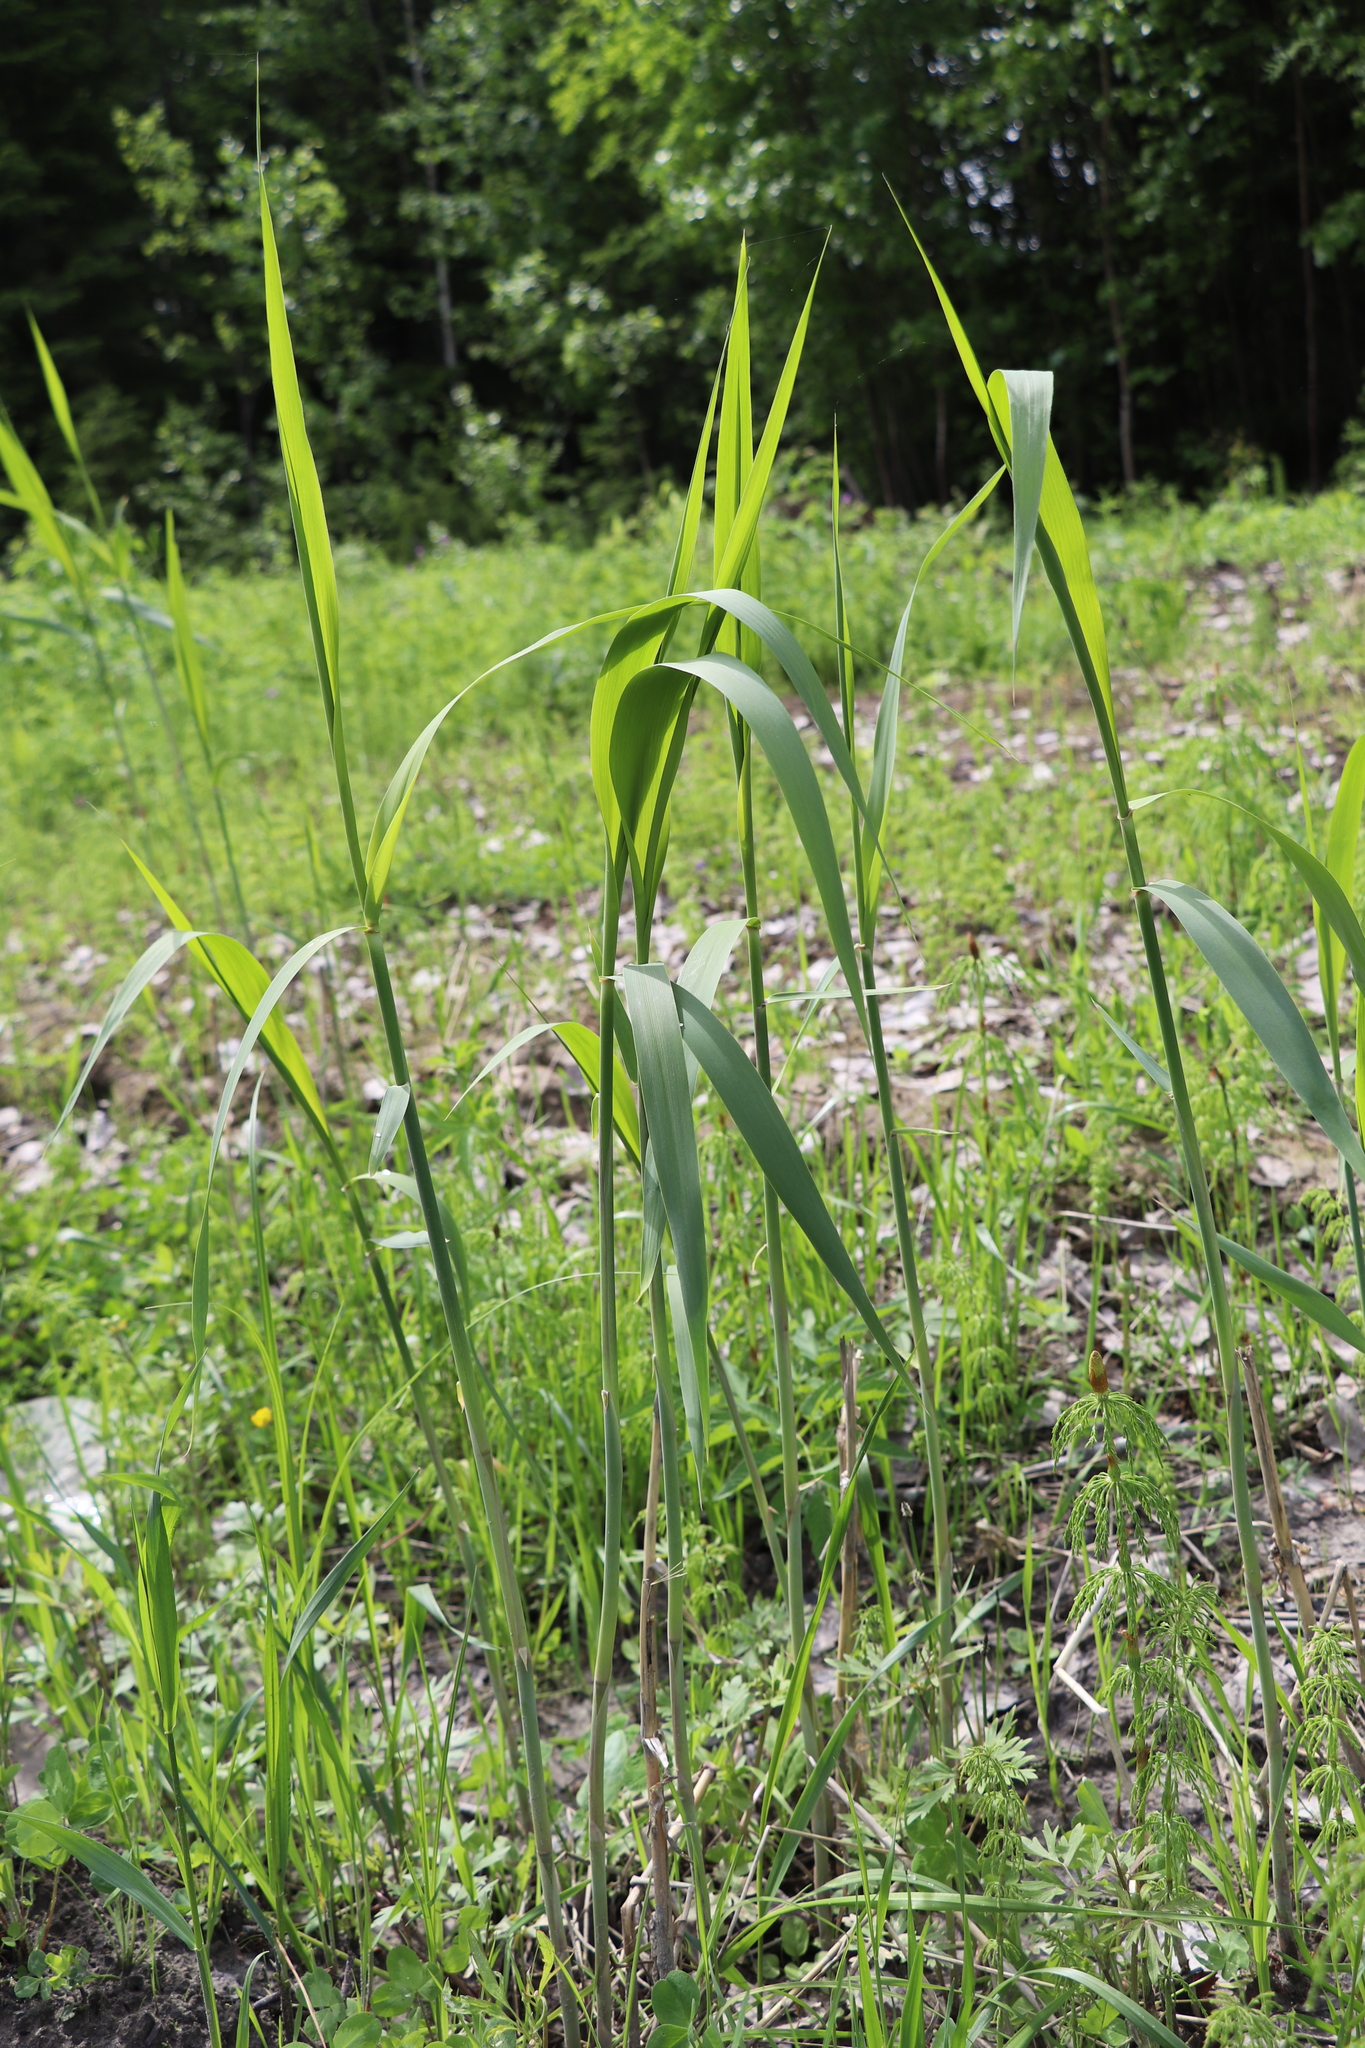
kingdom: Plantae
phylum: Tracheophyta
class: Liliopsida
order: Poales
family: Poaceae
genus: Phragmites
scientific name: Phragmites australis
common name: Common reed
